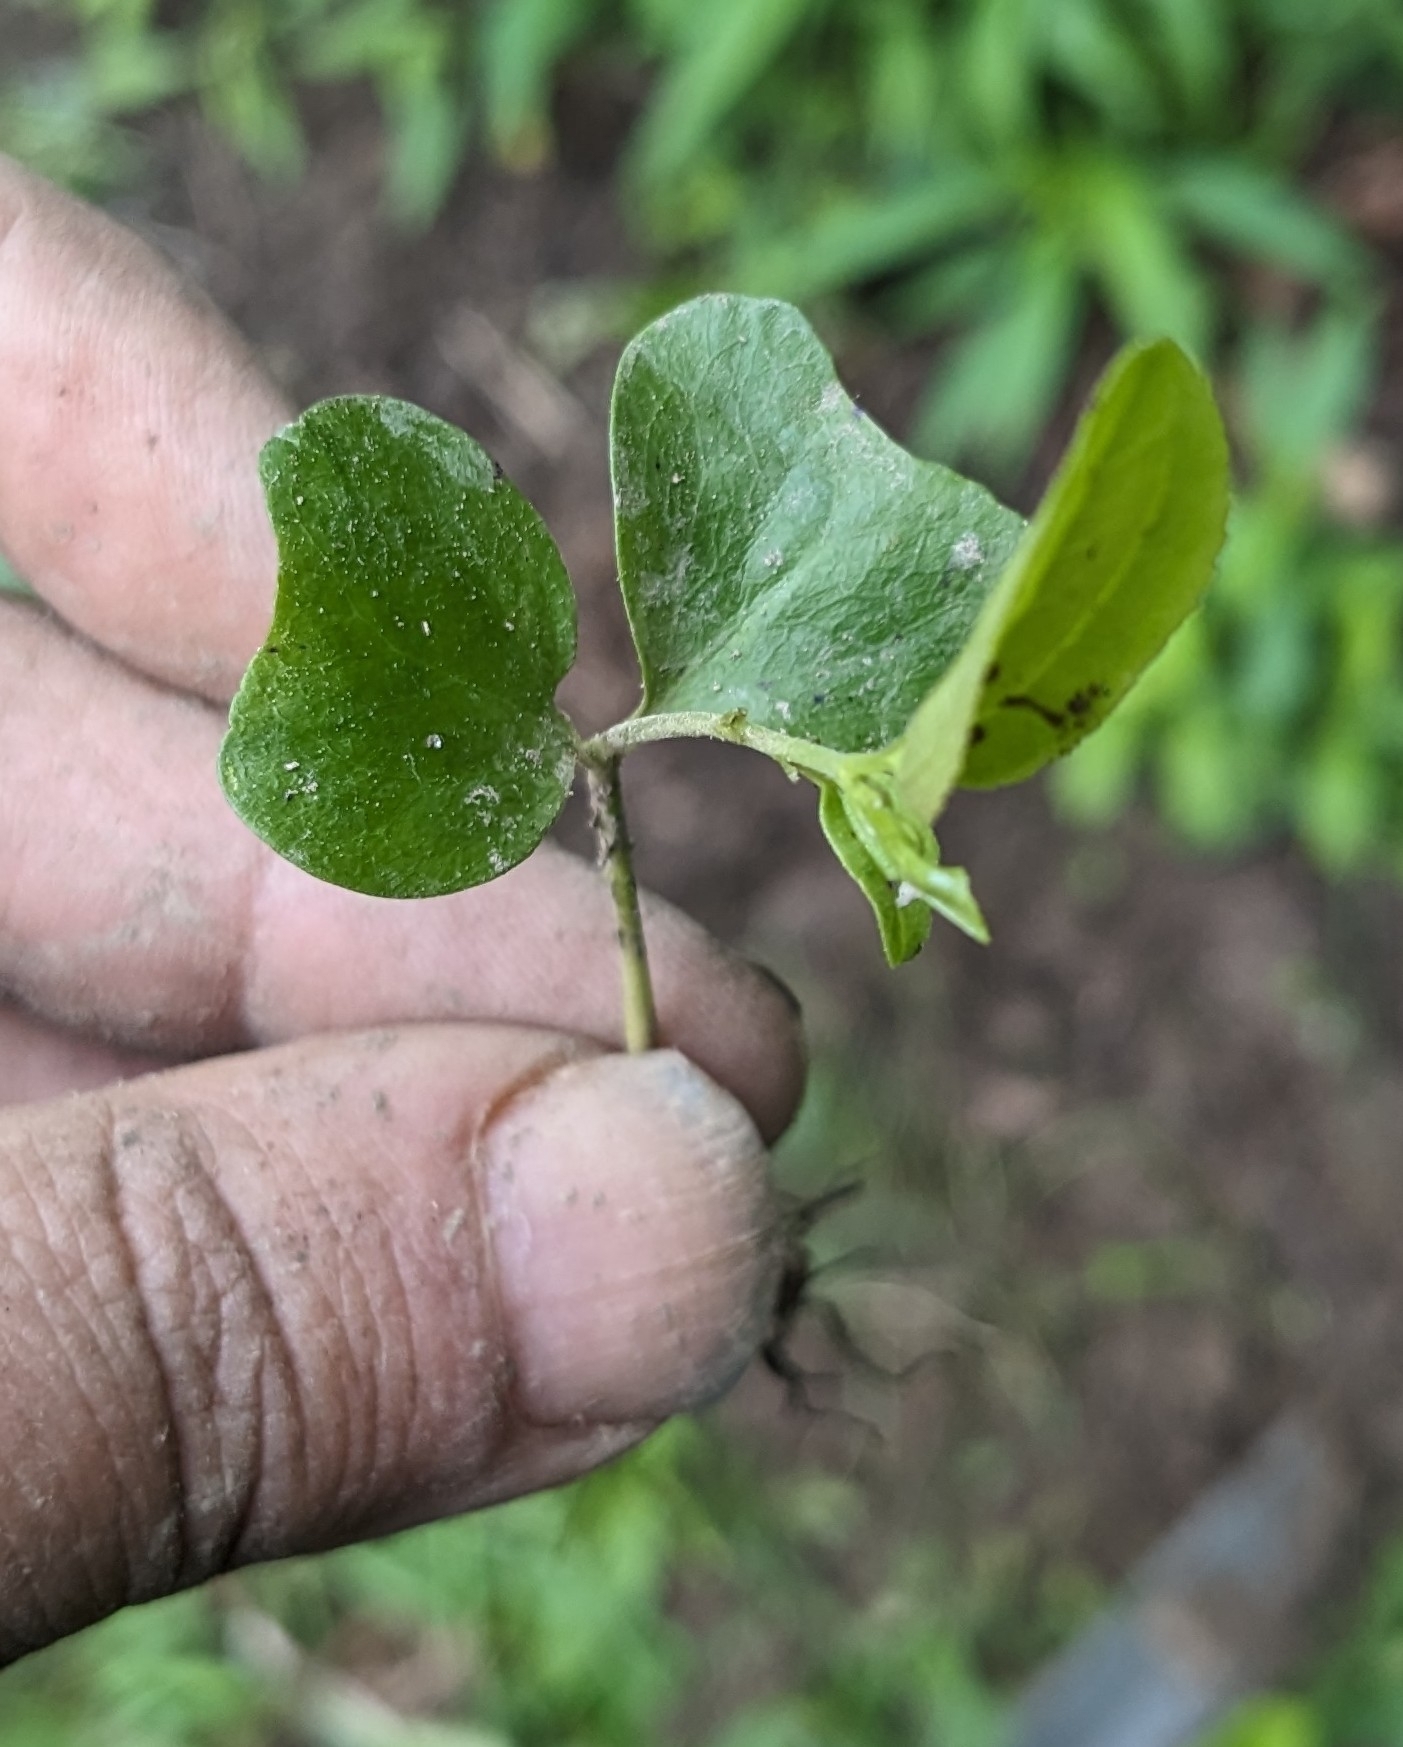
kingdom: Plantae
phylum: Tracheophyta
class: Magnoliopsida
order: Rosales
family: Rhamnaceae
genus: Rhamnus
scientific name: Rhamnus cathartica
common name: Common buckthorn
